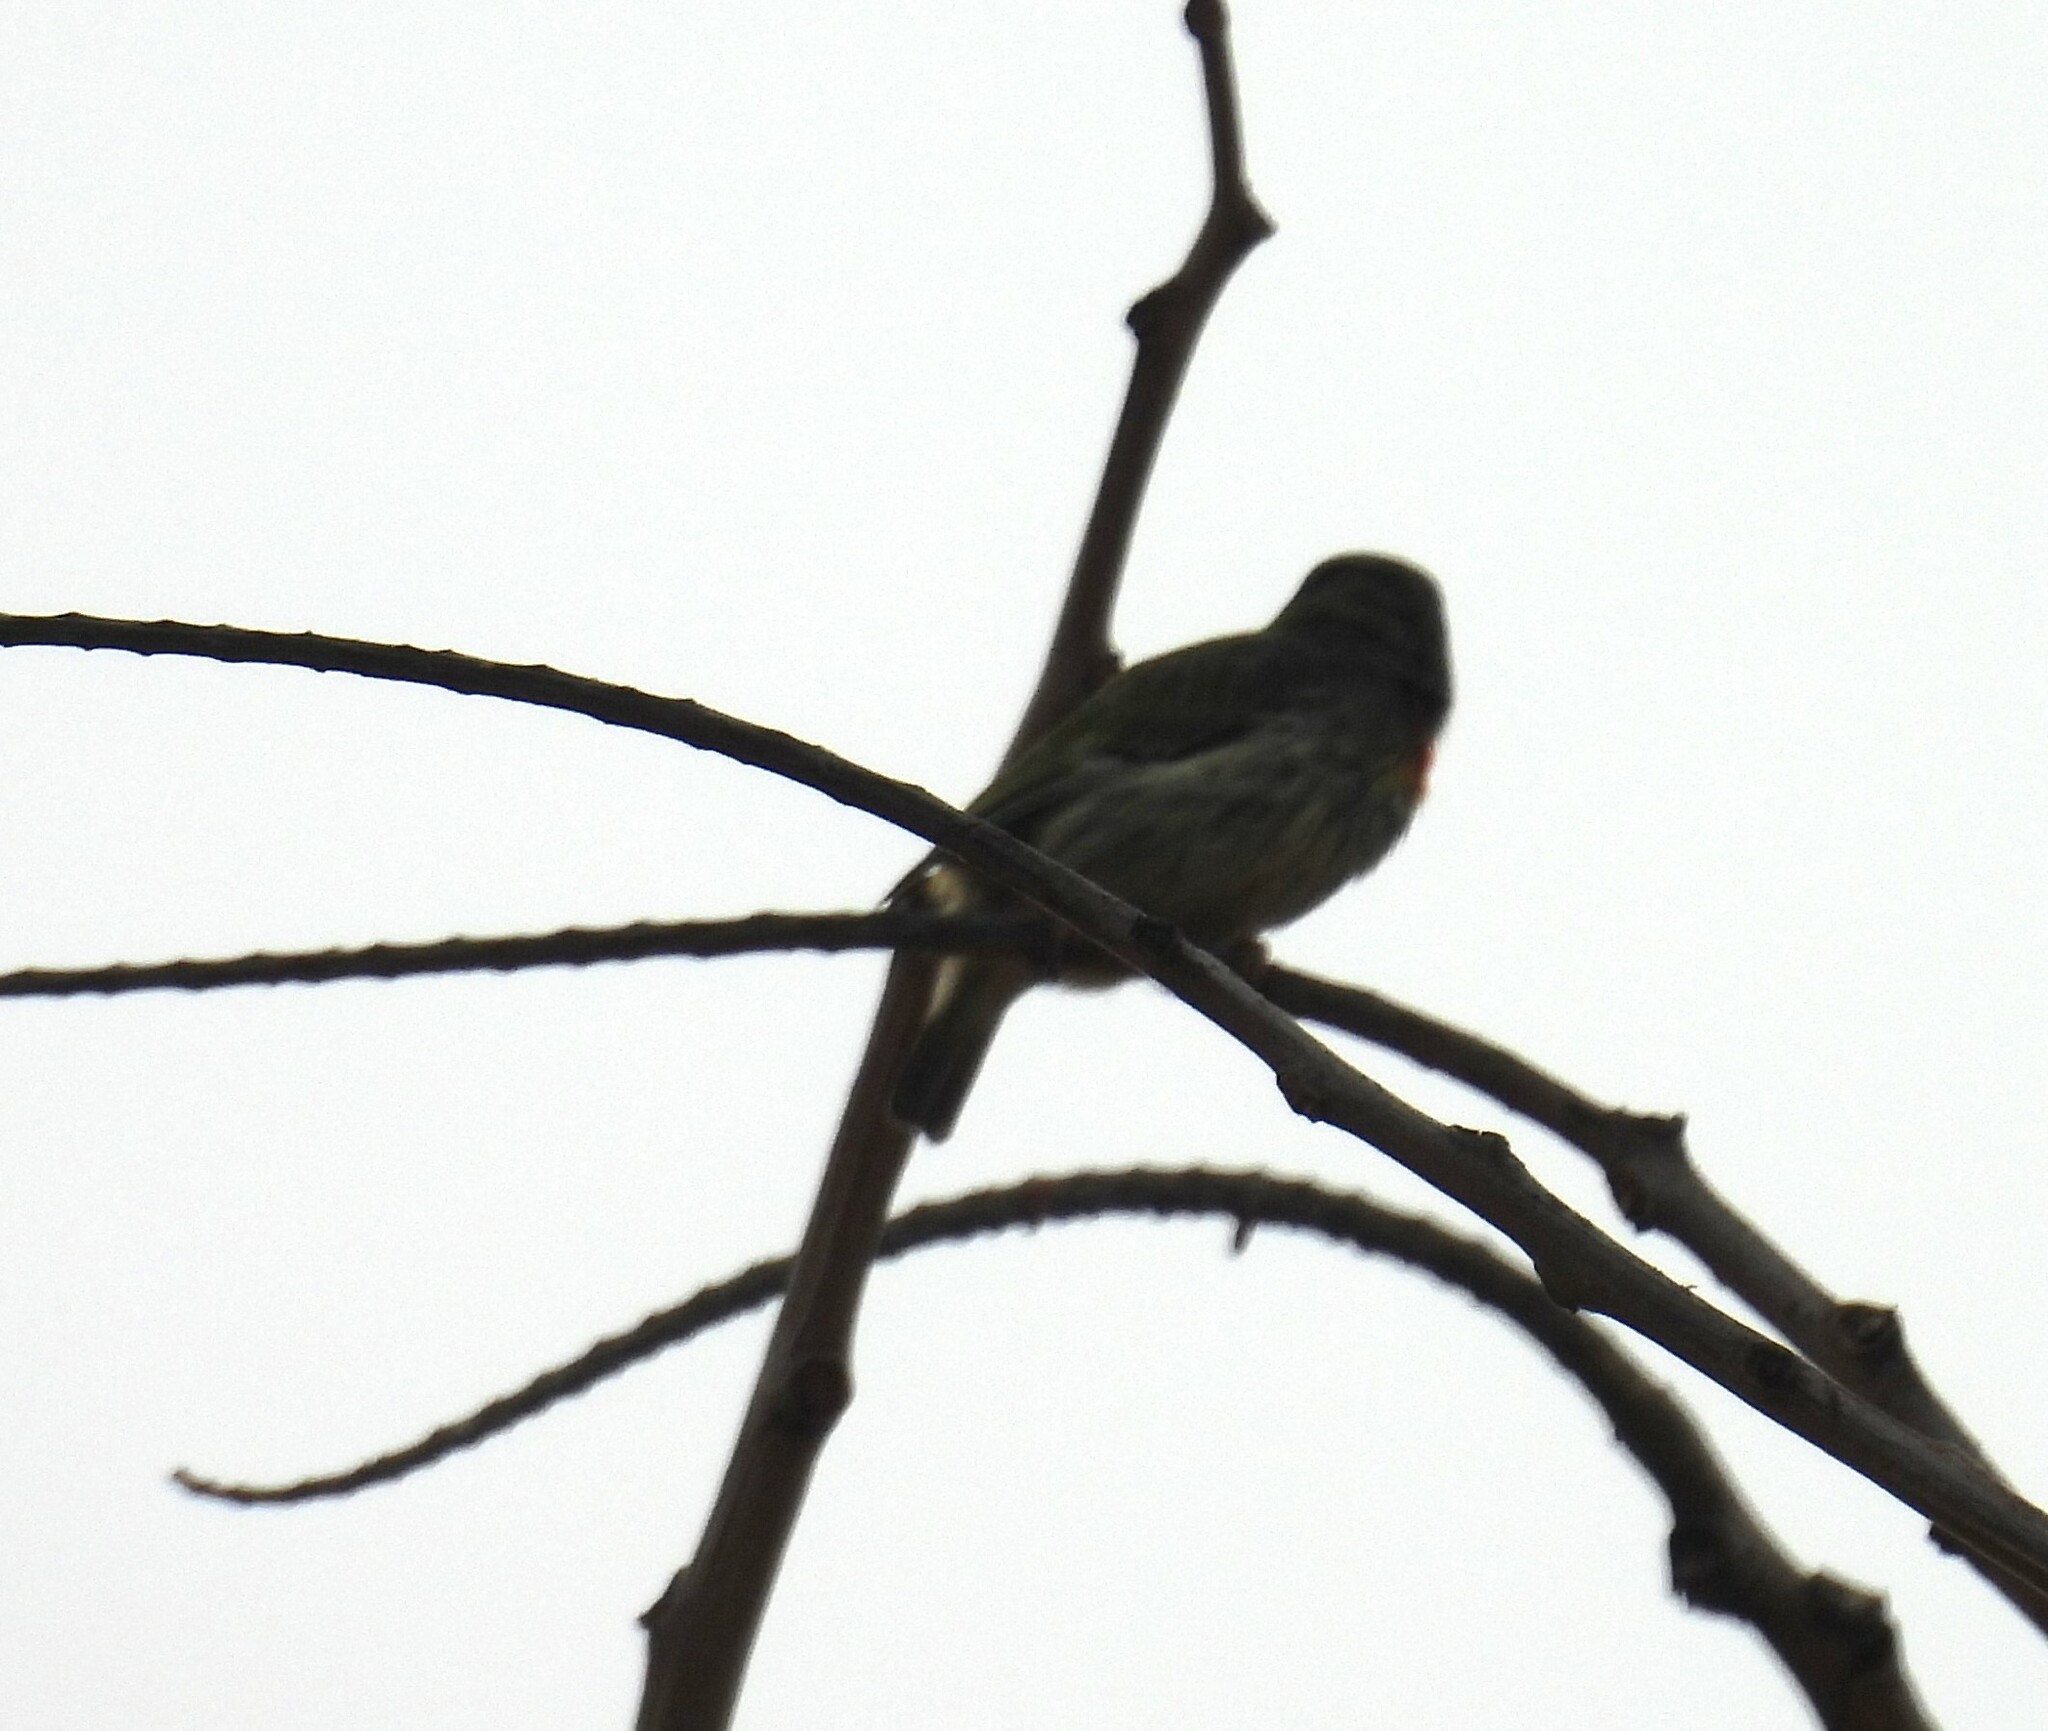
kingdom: Animalia
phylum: Chordata
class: Aves
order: Piciformes
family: Megalaimidae
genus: Psilopogon
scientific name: Psilopogon haemacephalus
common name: Coppersmith barbet
